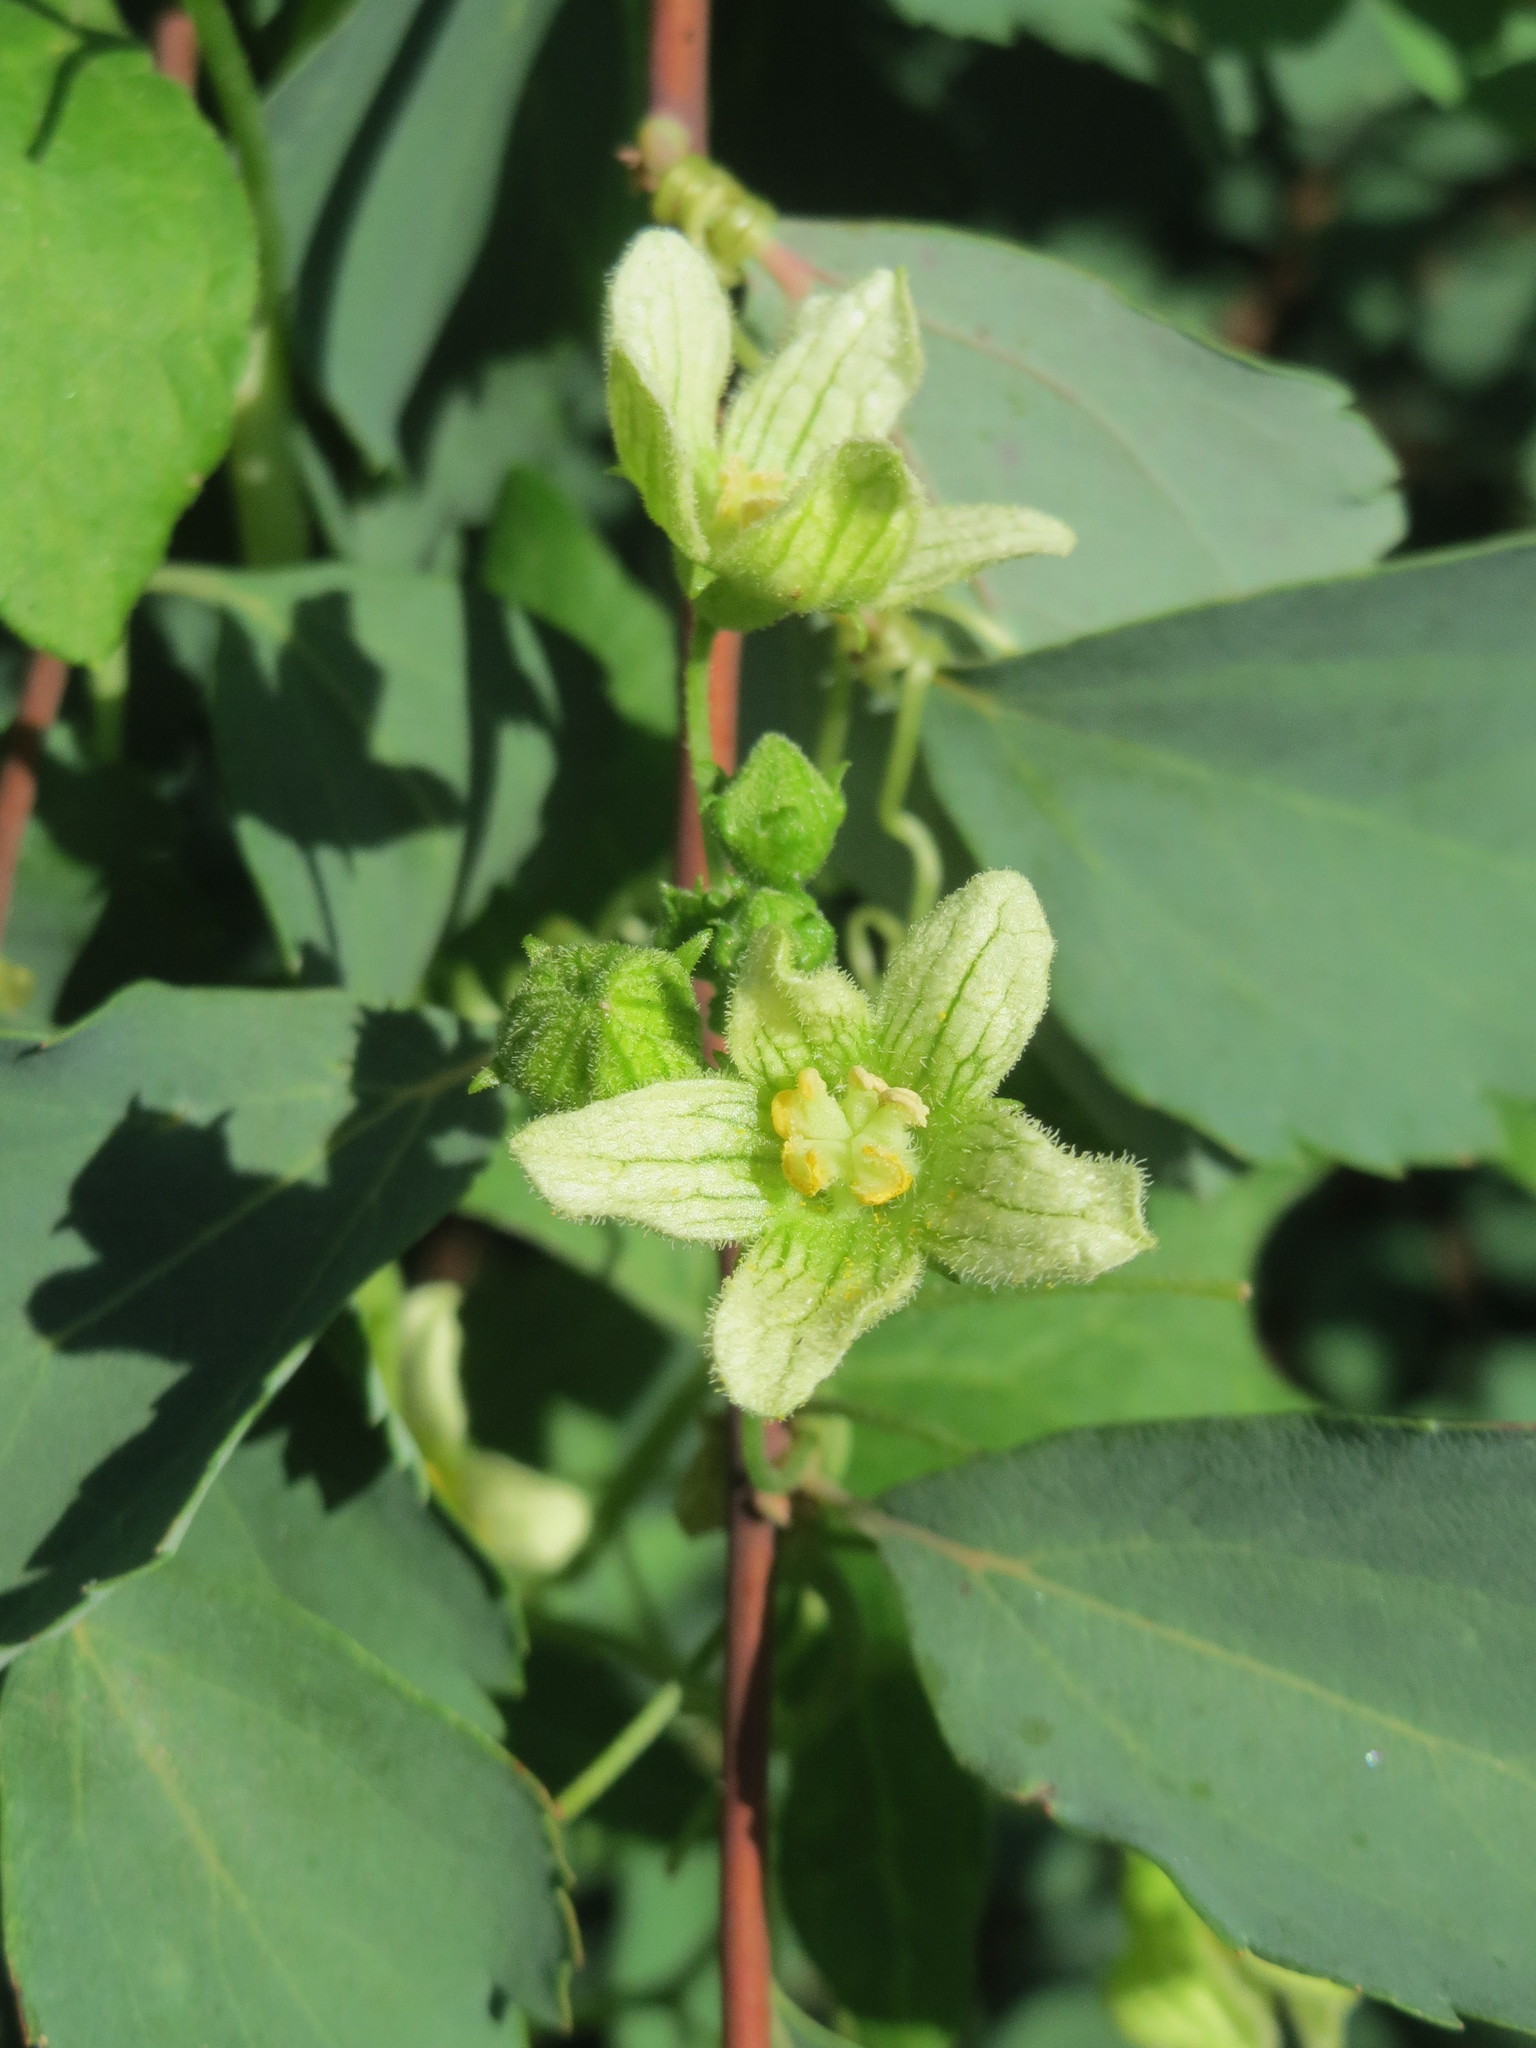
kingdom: Plantae
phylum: Tracheophyta
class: Magnoliopsida
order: Cucurbitales
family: Cucurbitaceae
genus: Bryonia
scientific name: Bryonia dioica
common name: White bryony
